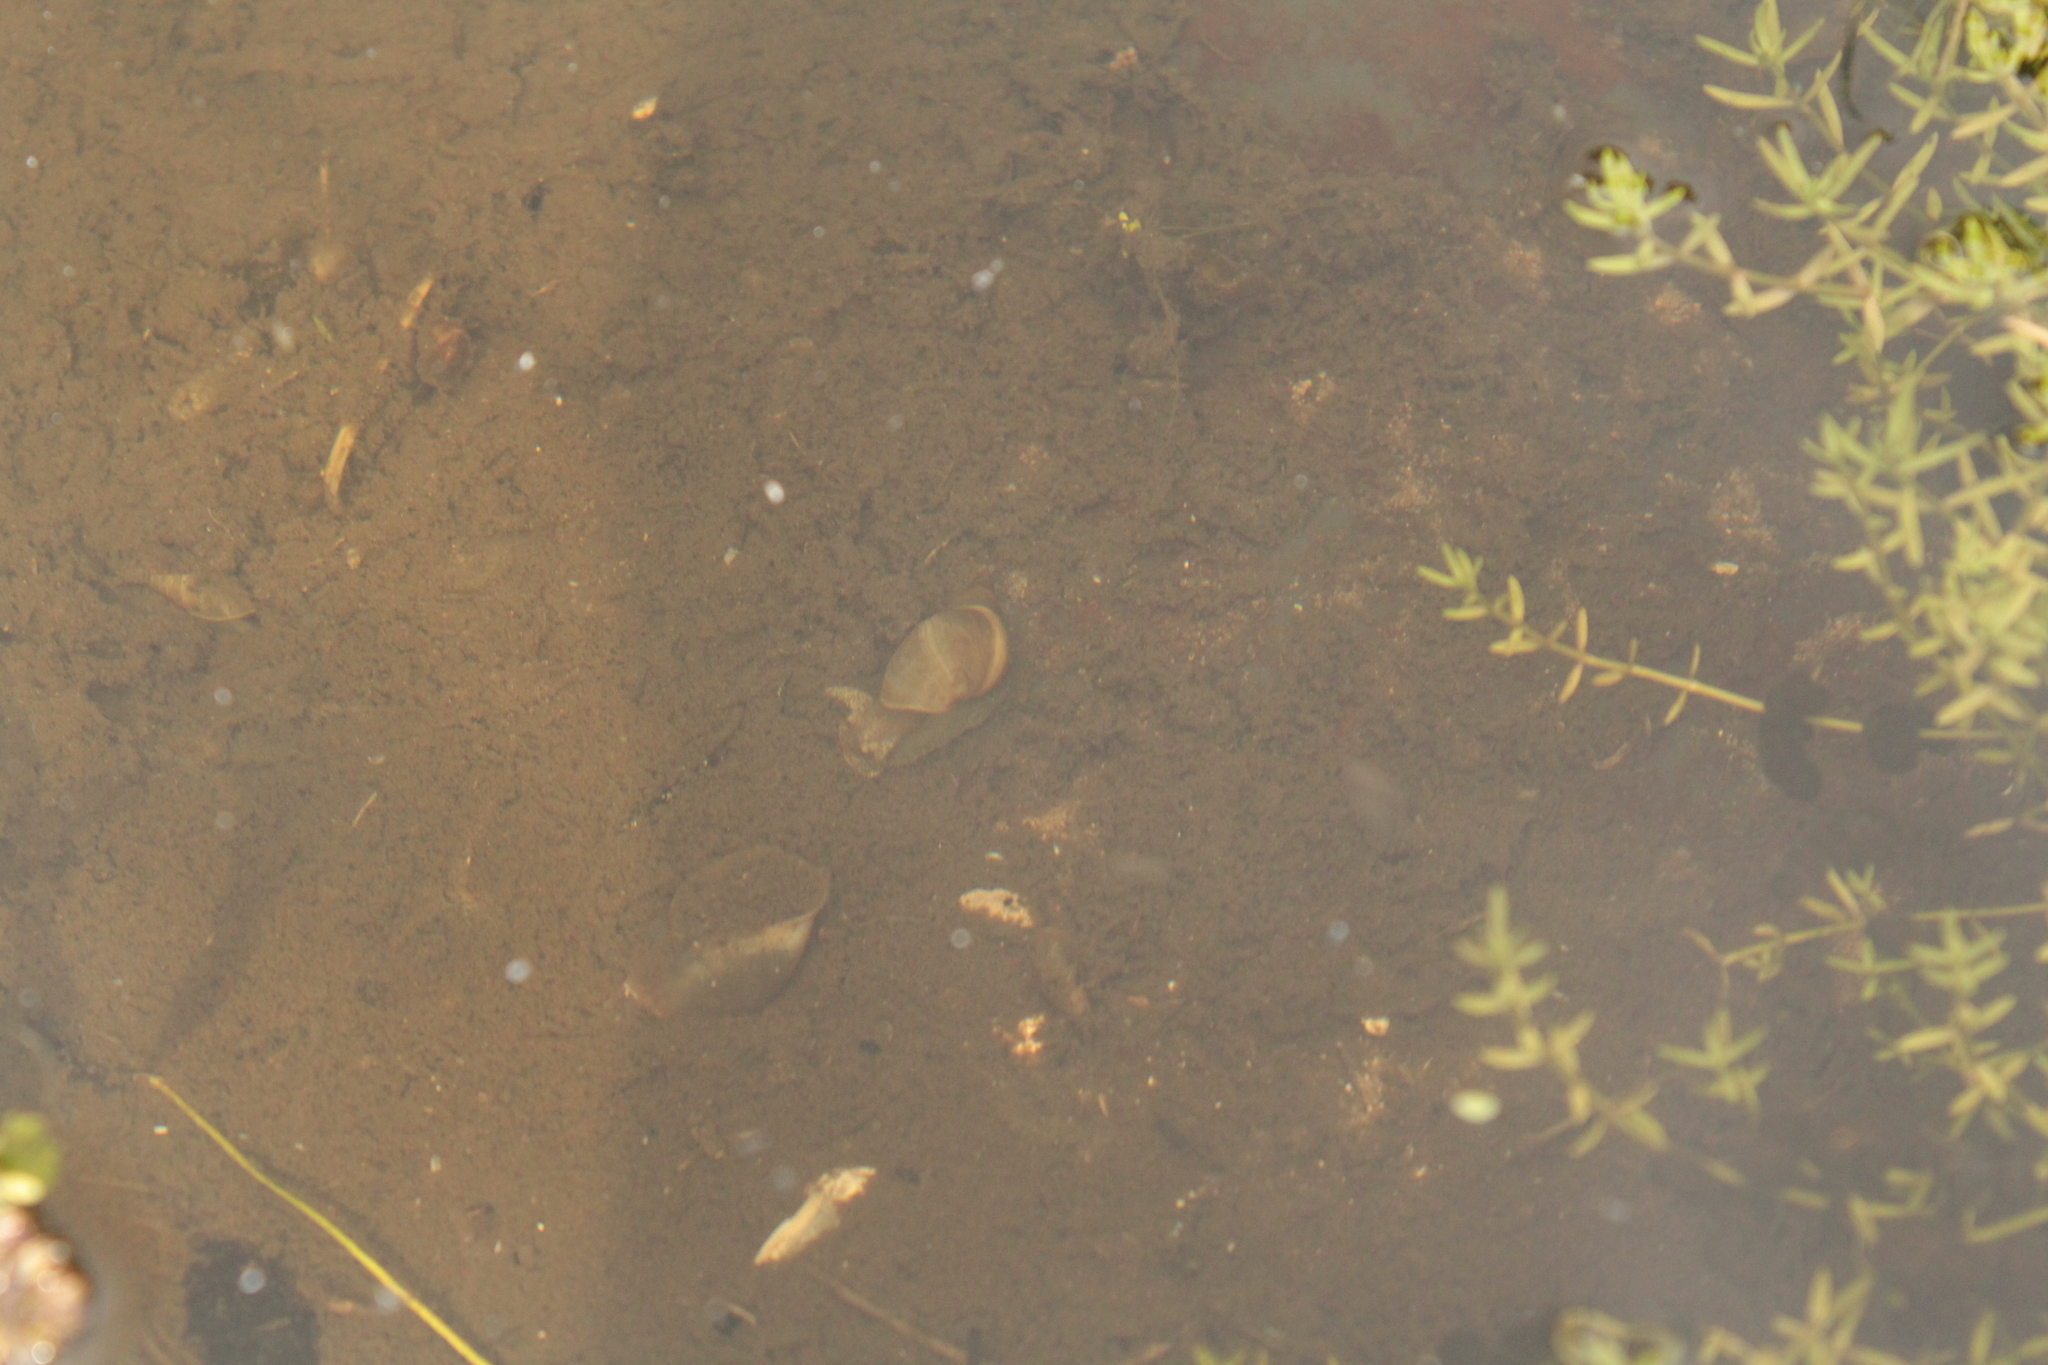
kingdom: Animalia
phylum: Mollusca
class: Gastropoda
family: Planorbidae
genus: Planorbarius
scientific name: Planorbarius corneus
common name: Great ramshorn
